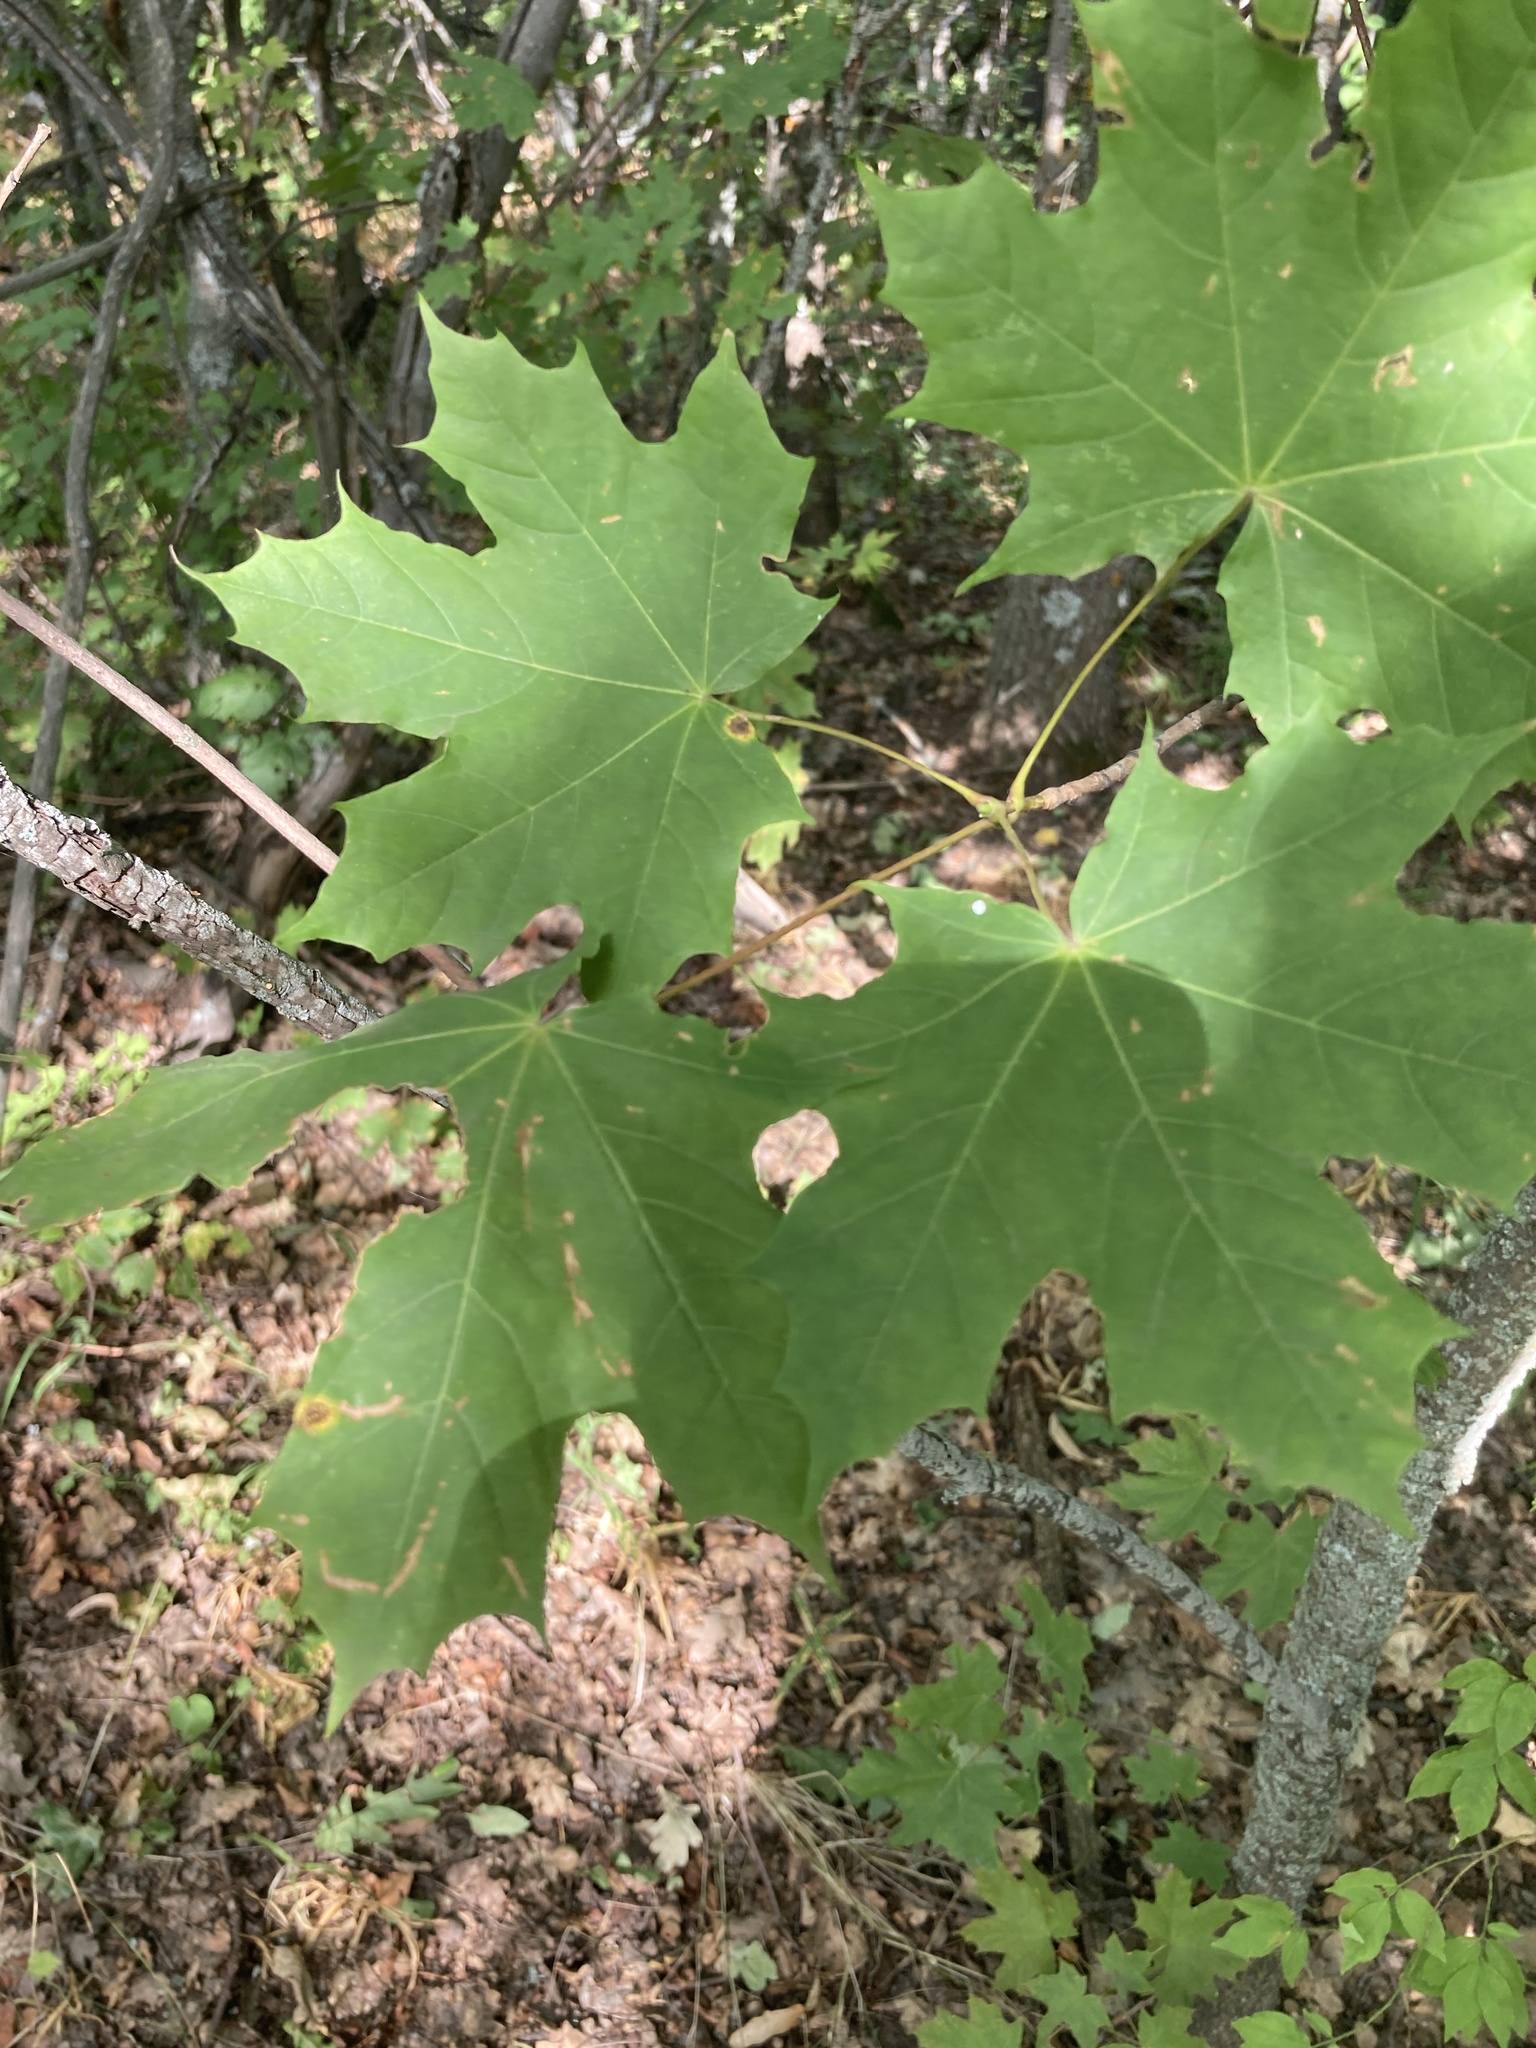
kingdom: Plantae
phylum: Tracheophyta
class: Magnoliopsida
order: Sapindales
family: Sapindaceae
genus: Acer
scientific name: Acer platanoides
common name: Norway maple
